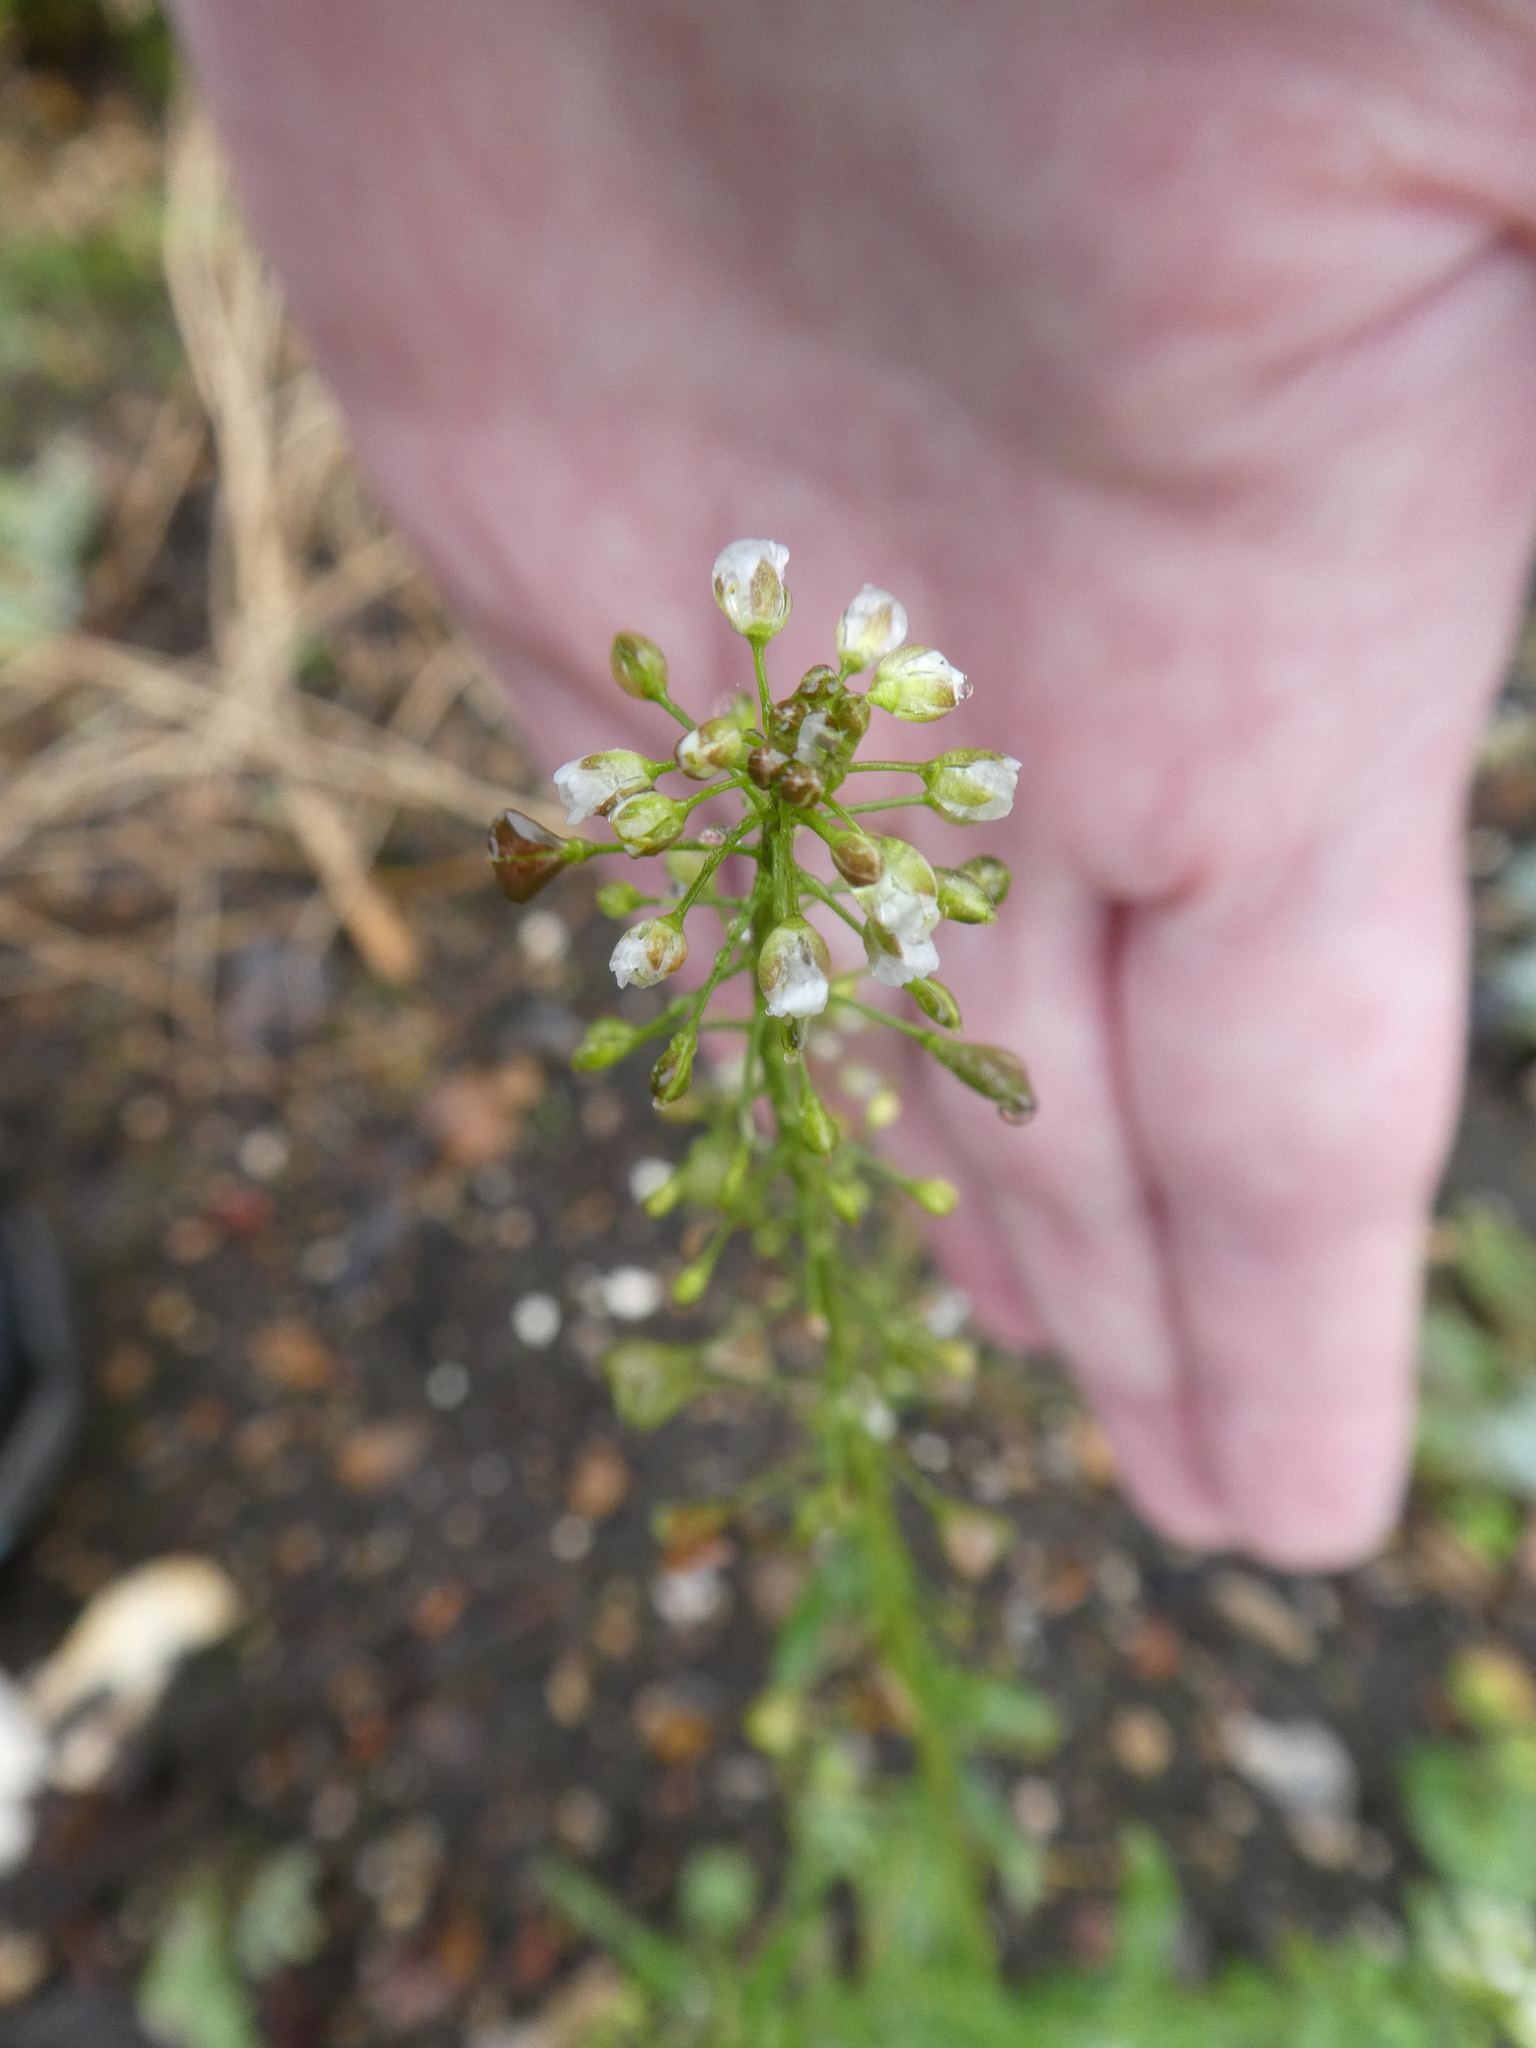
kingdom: Plantae
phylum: Tracheophyta
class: Magnoliopsida
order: Brassicales
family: Brassicaceae
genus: Capsella
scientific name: Capsella bursa-pastoris
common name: Shepherd's purse
